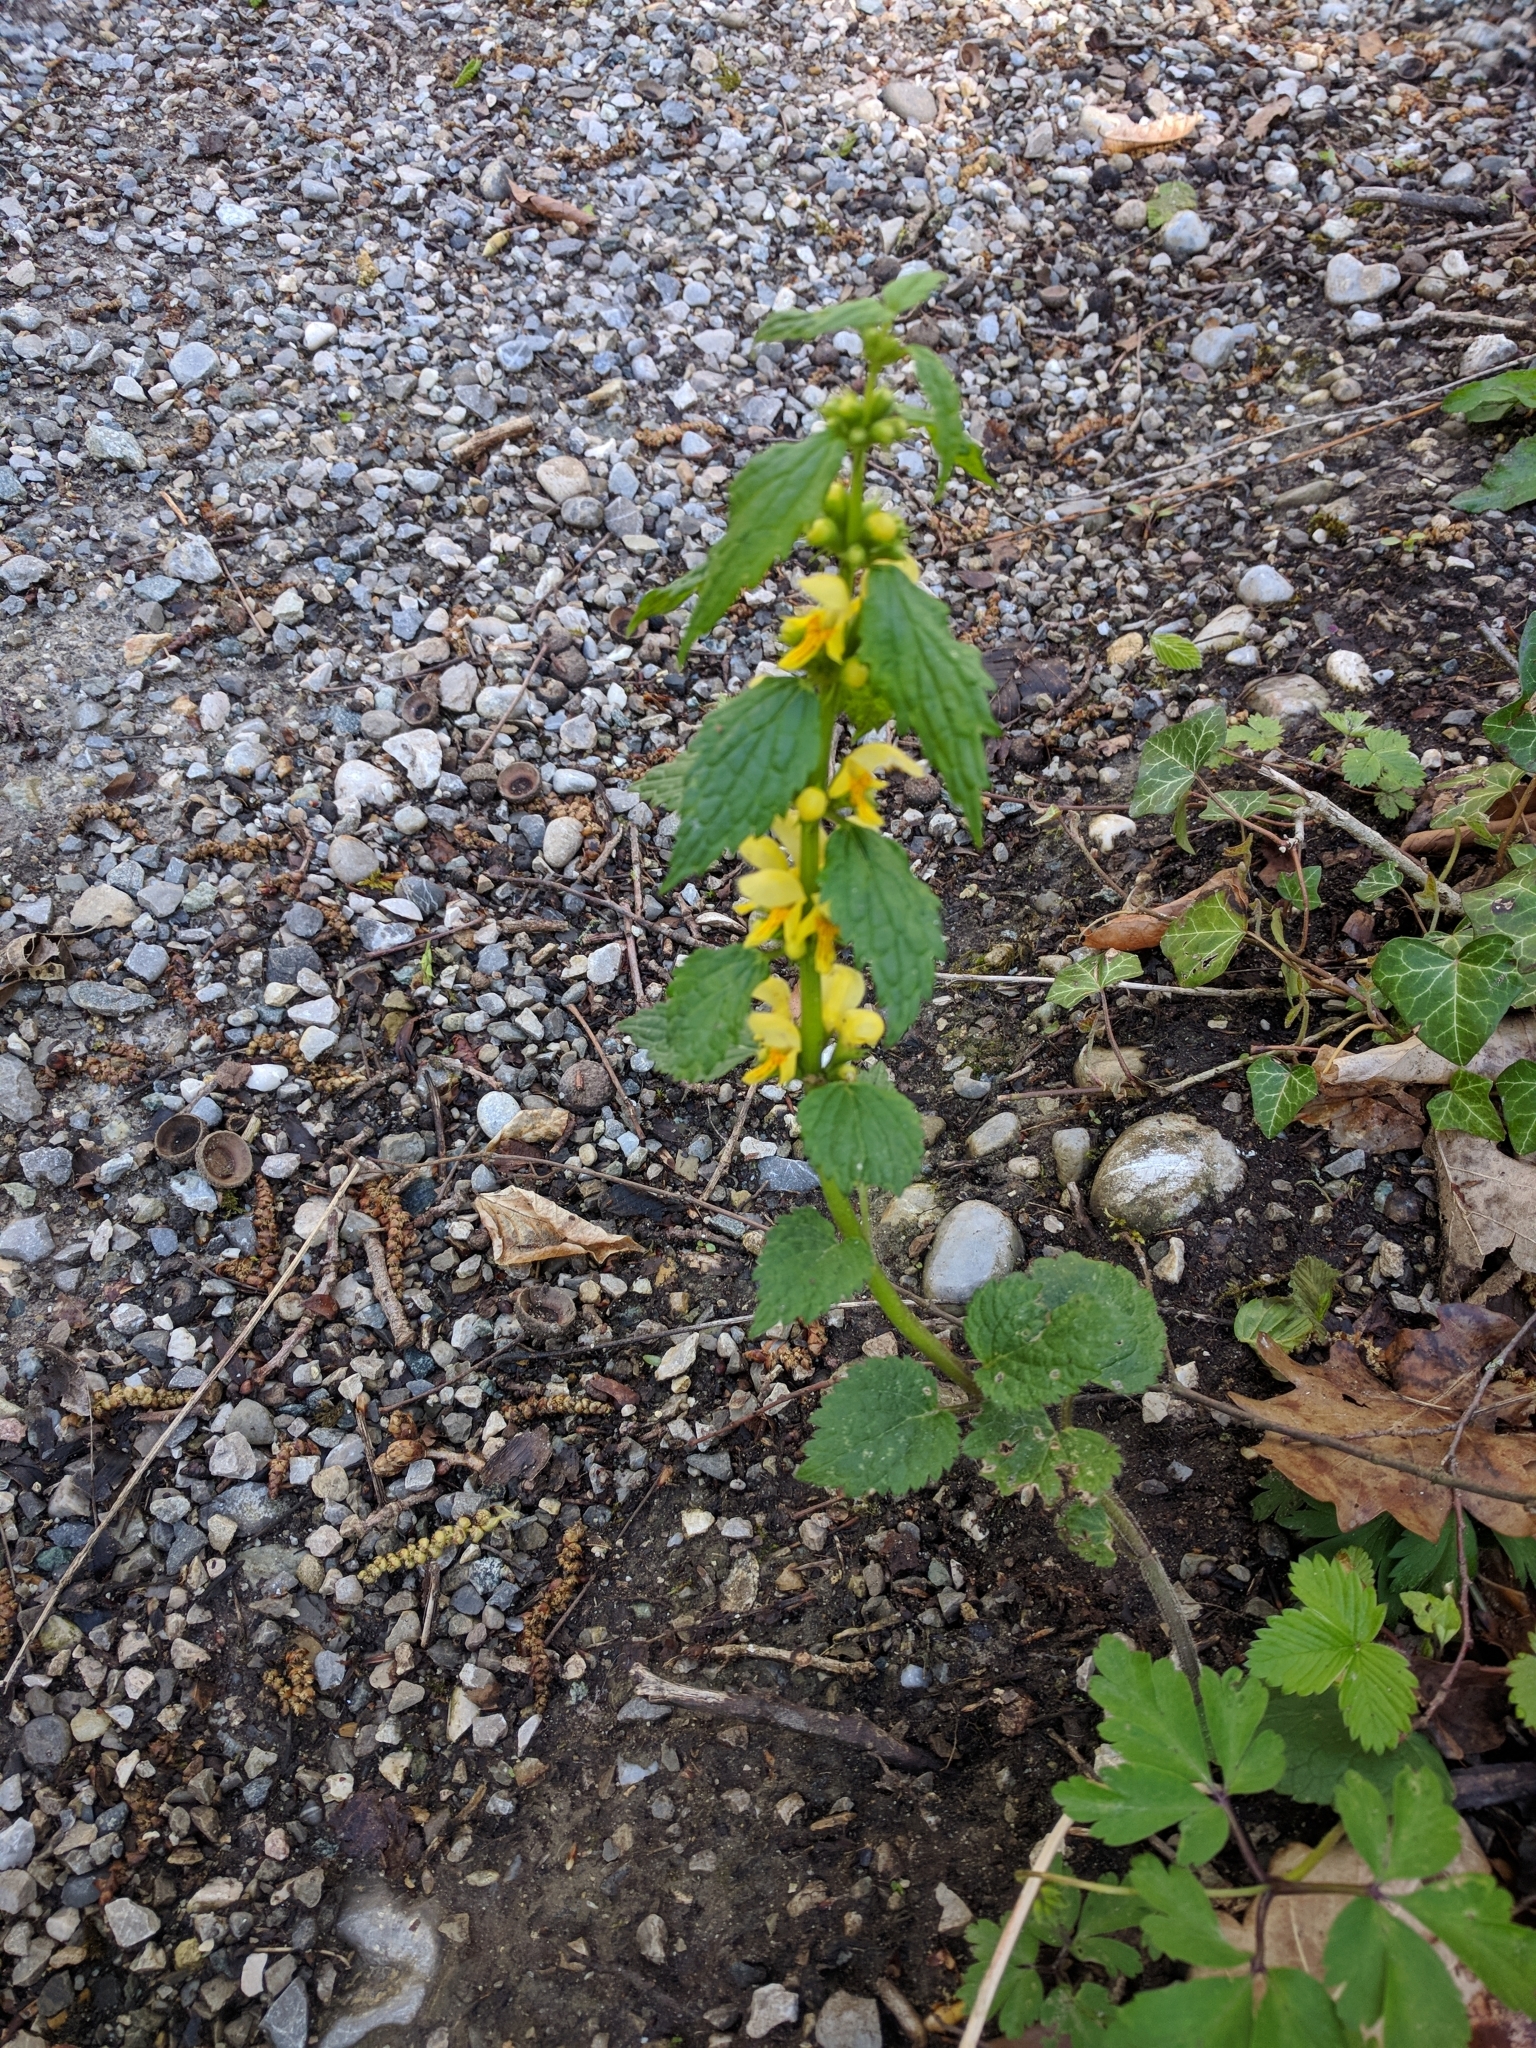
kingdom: Plantae
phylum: Tracheophyta
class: Magnoliopsida
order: Lamiales
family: Lamiaceae
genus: Lamium
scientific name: Lamium galeobdolon
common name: Yellow archangel
